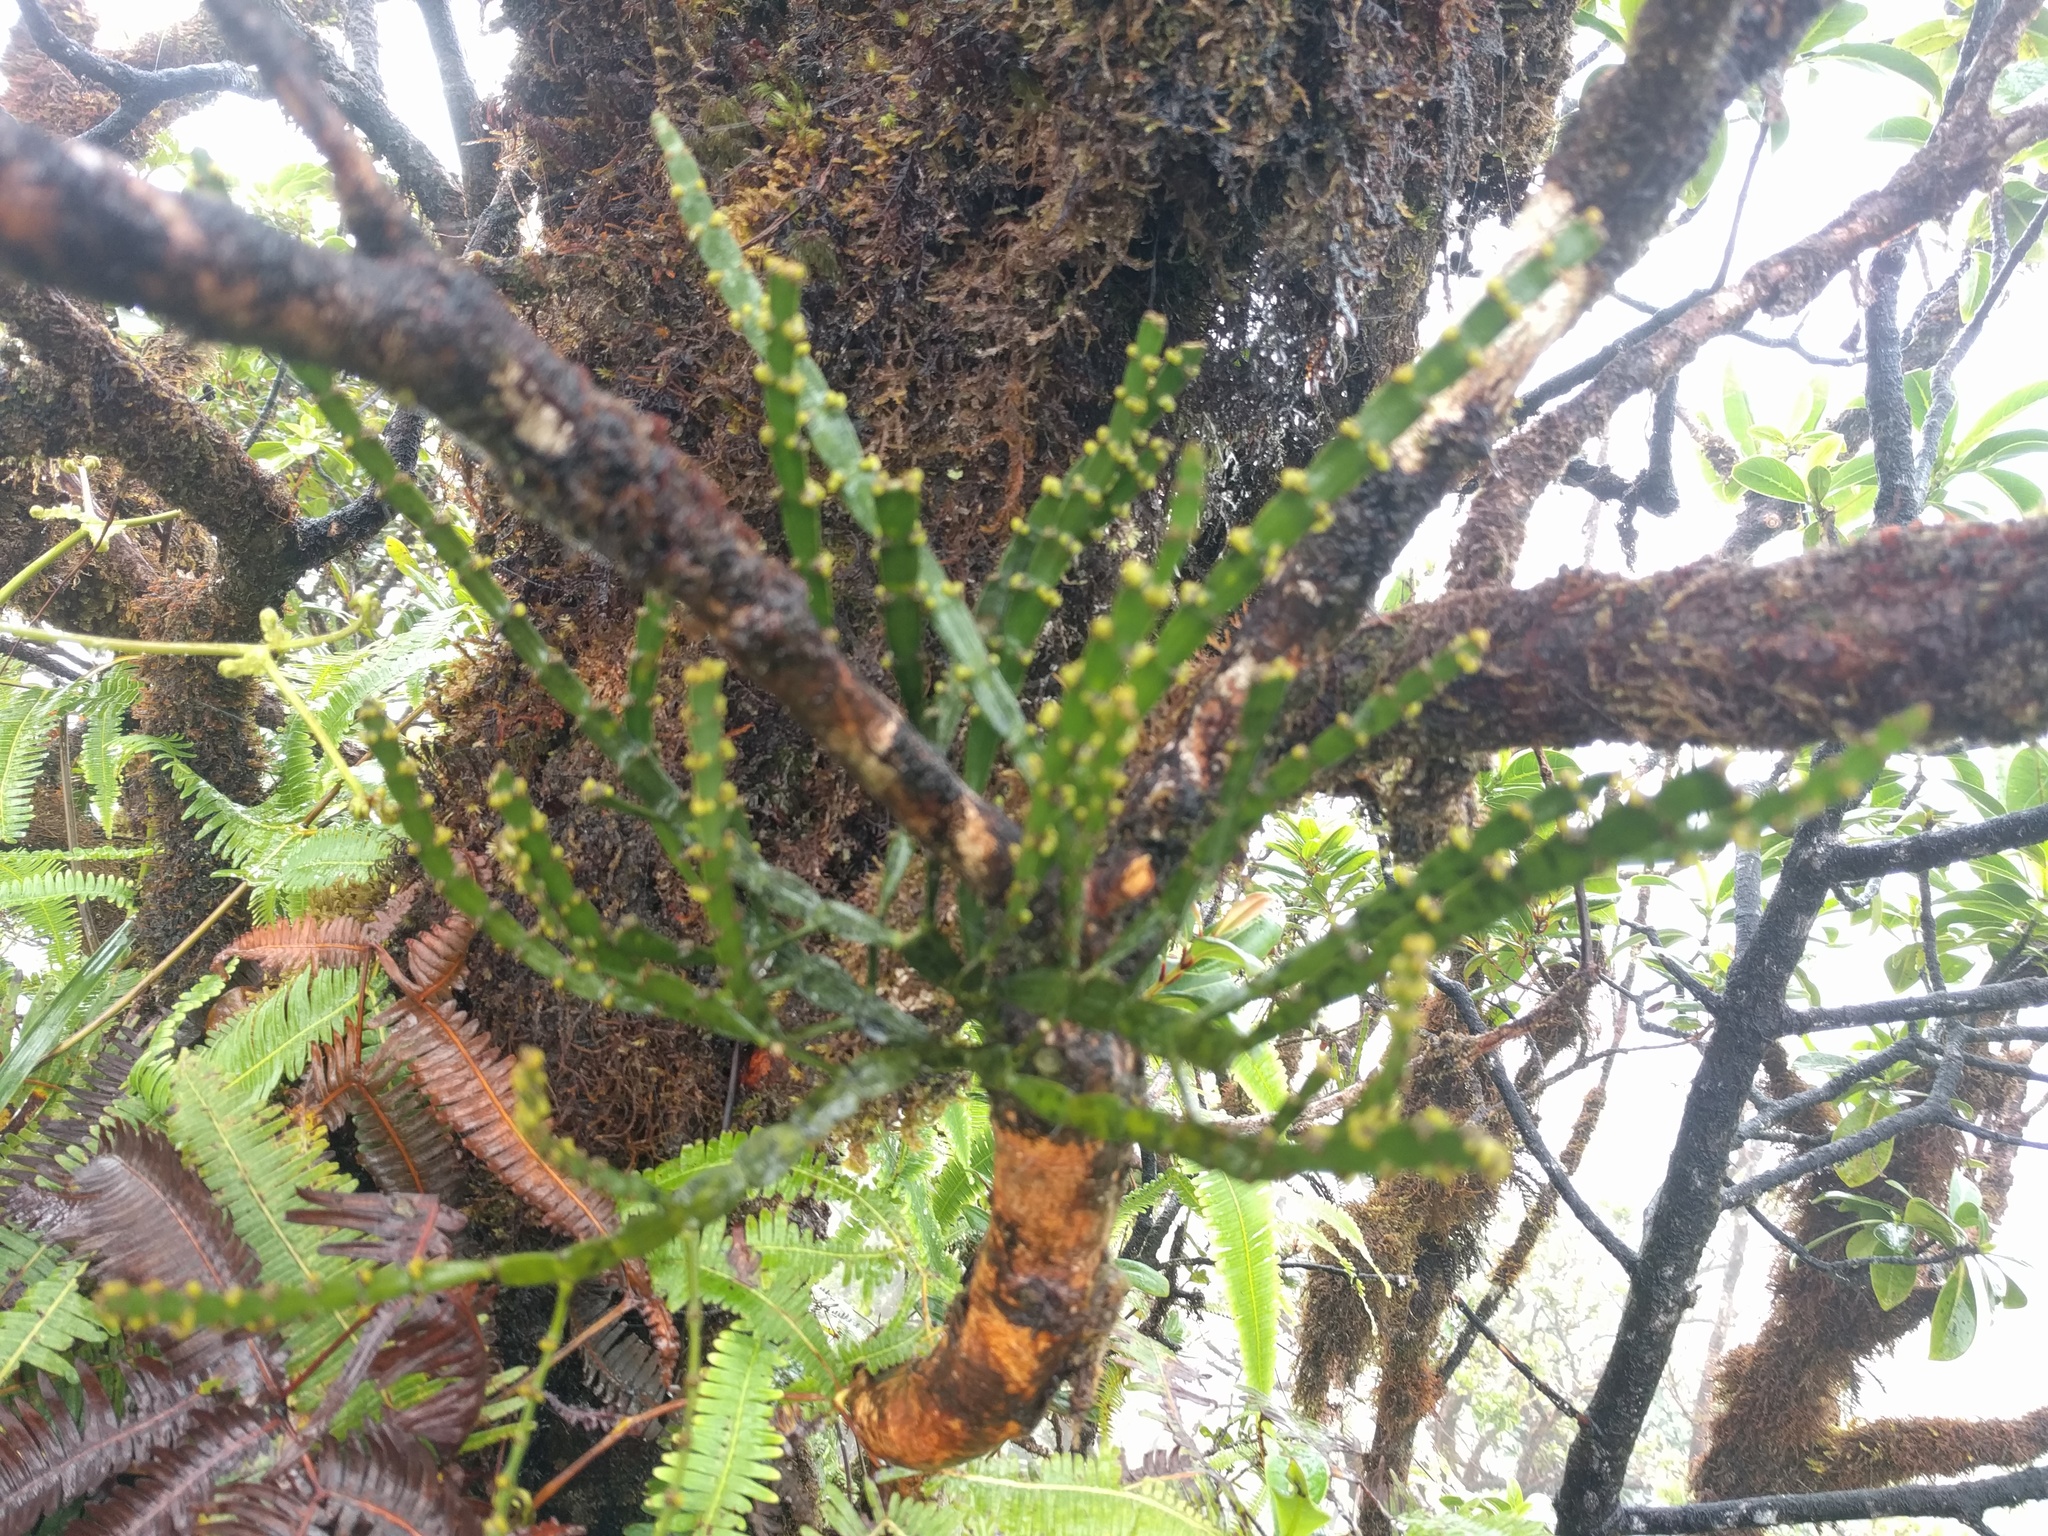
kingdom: Plantae
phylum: Tracheophyta
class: Magnoliopsida
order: Santalales
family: Viscaceae
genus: Korthalsella
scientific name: Korthalsella complanata
